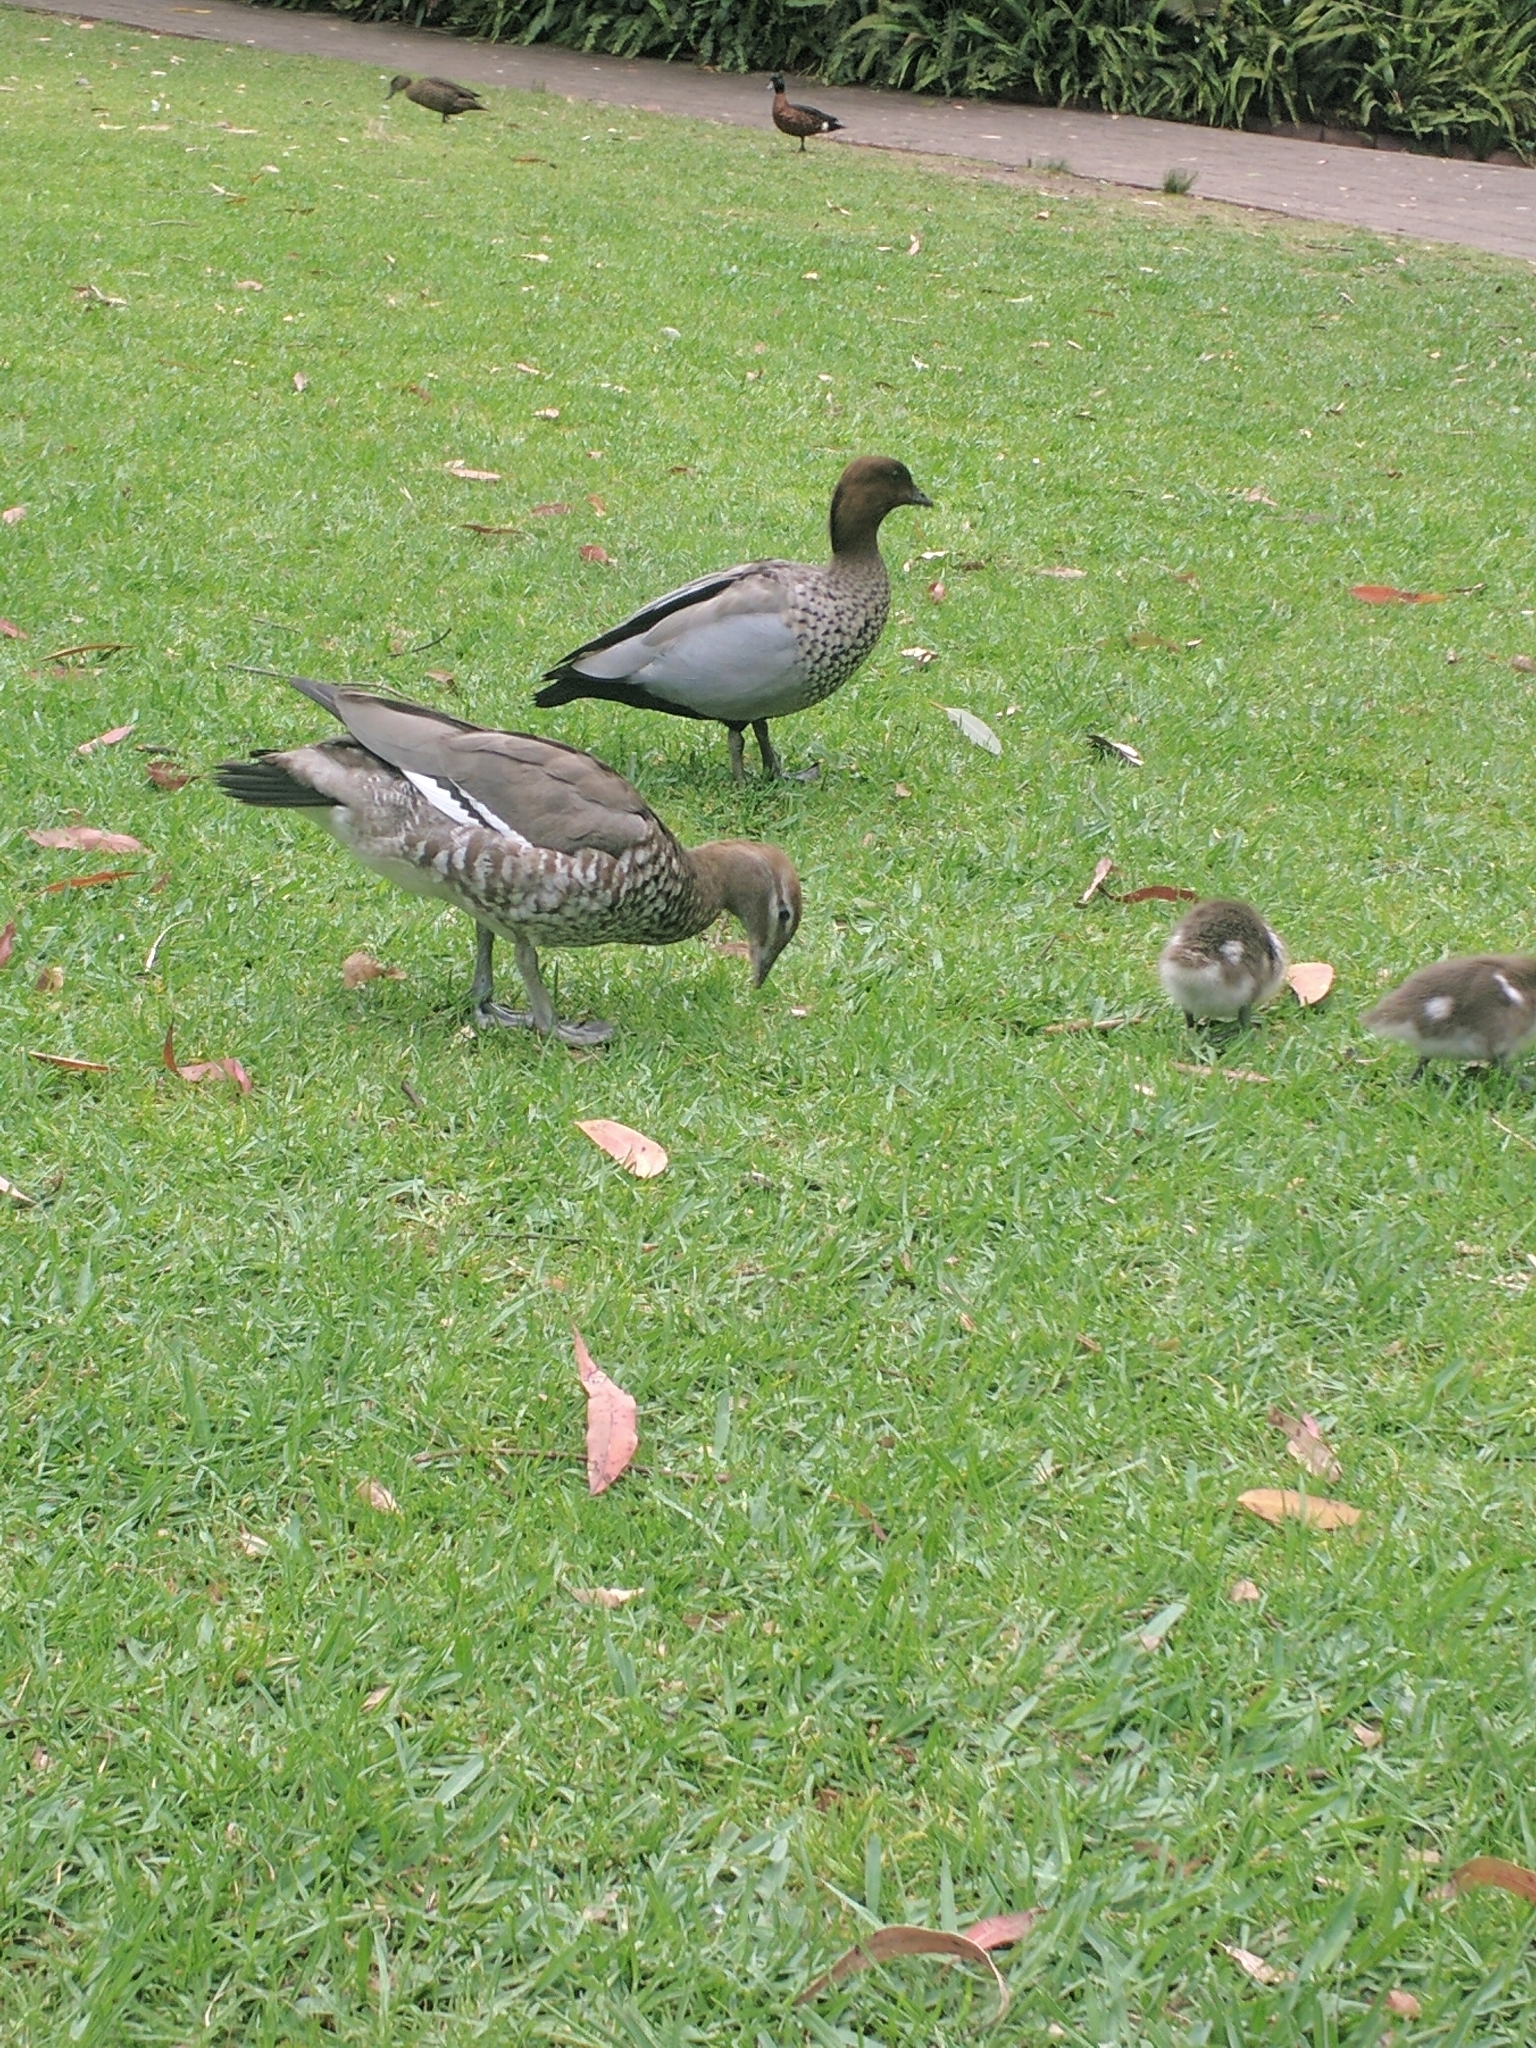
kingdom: Animalia
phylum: Chordata
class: Aves
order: Anseriformes
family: Anatidae
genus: Chenonetta
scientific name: Chenonetta jubata
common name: Maned duck
